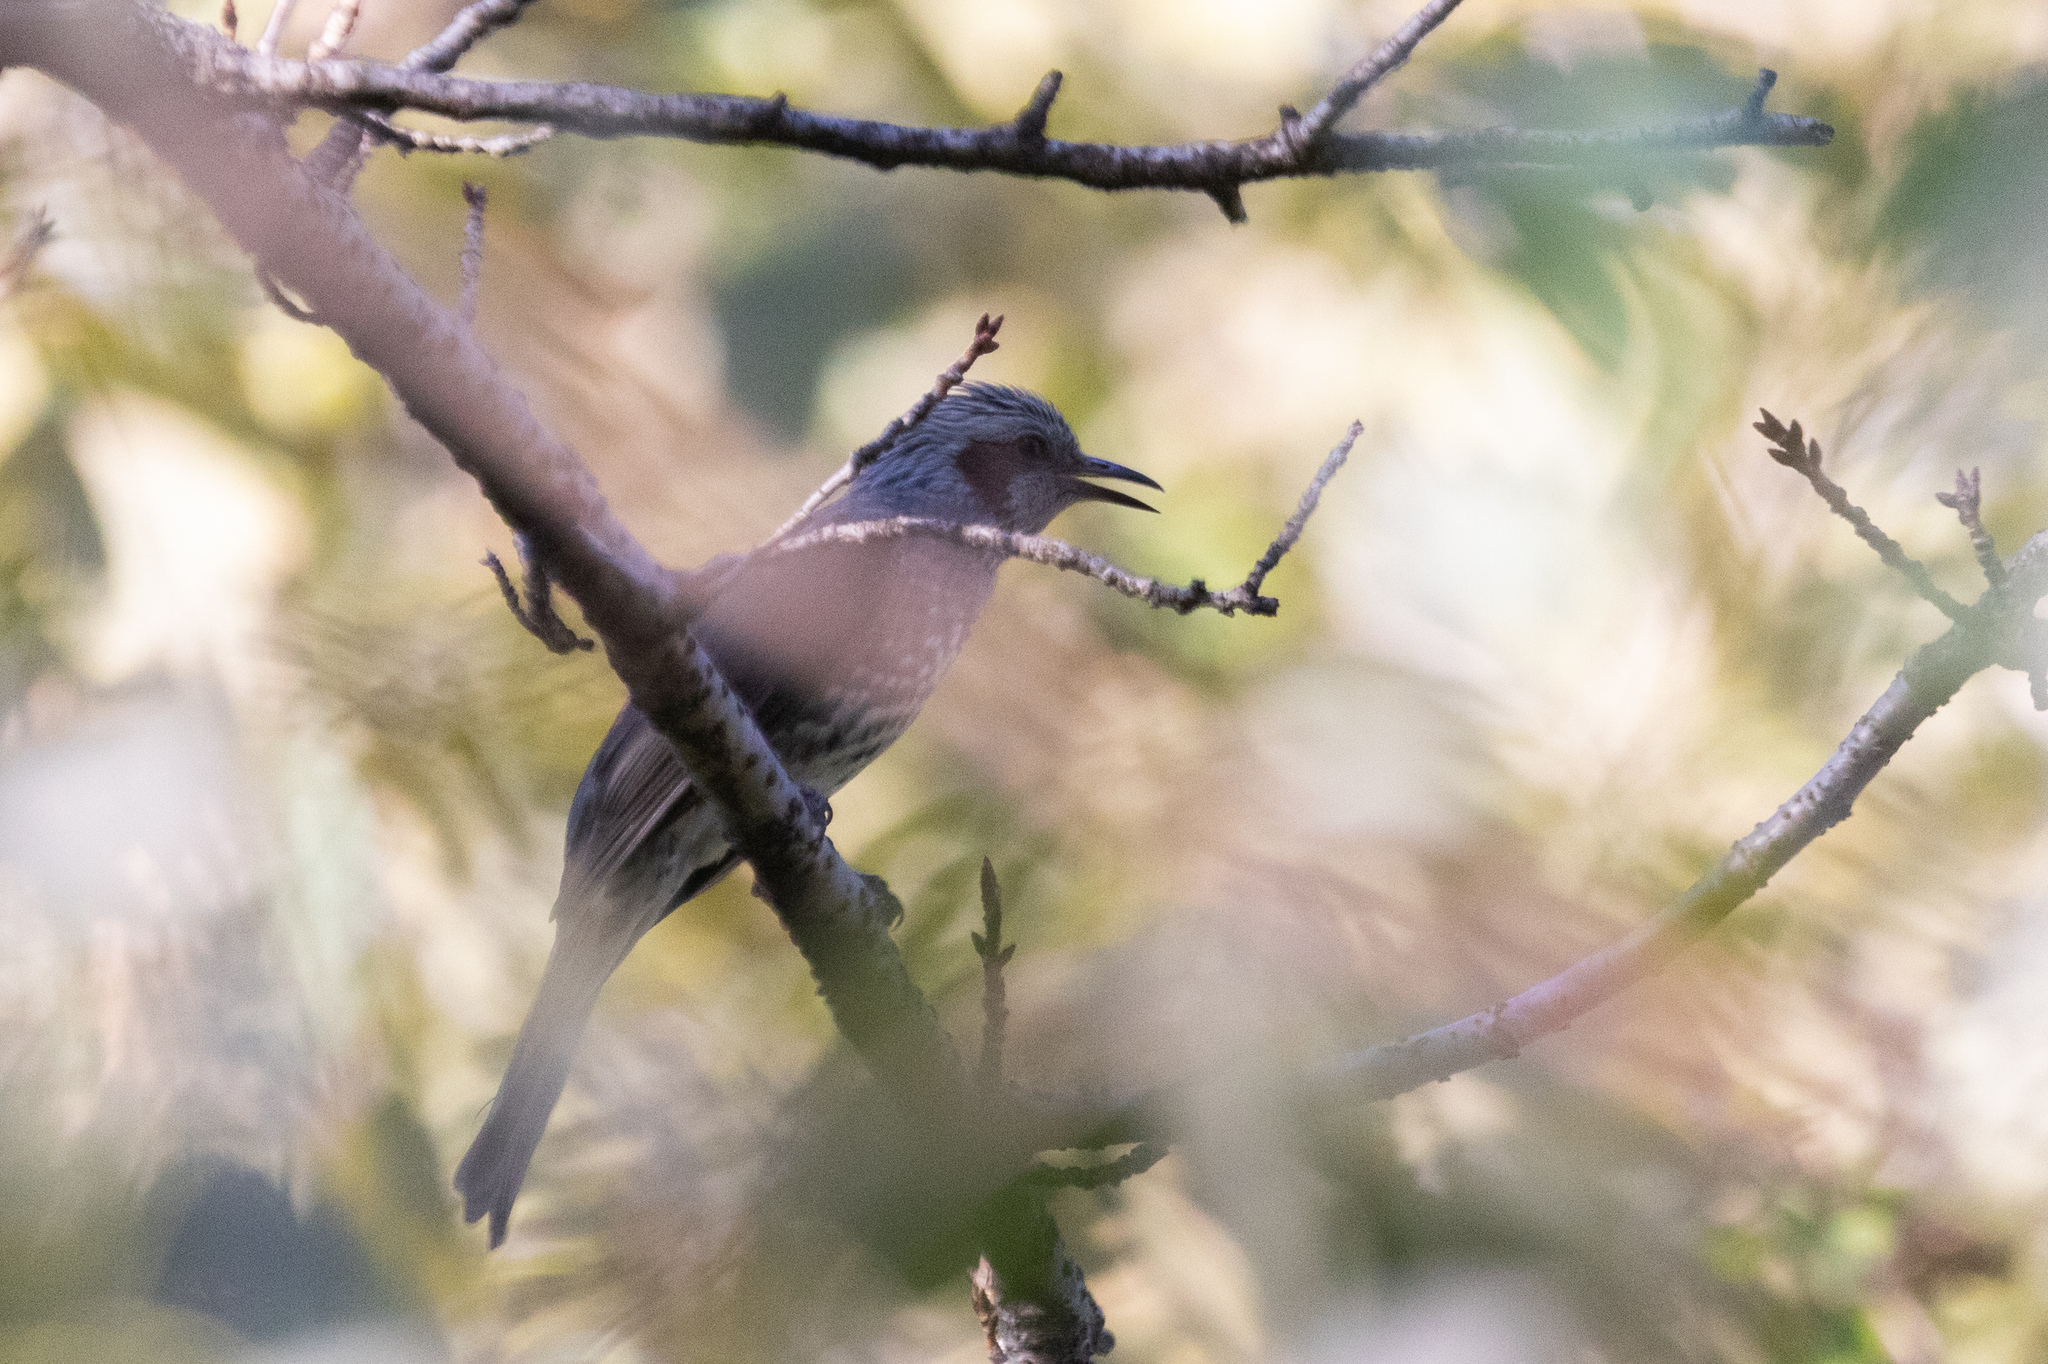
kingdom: Animalia
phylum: Chordata
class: Aves
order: Passeriformes
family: Pycnonotidae
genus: Hypsipetes
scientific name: Hypsipetes amaurotis
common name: Brown-eared bulbul
